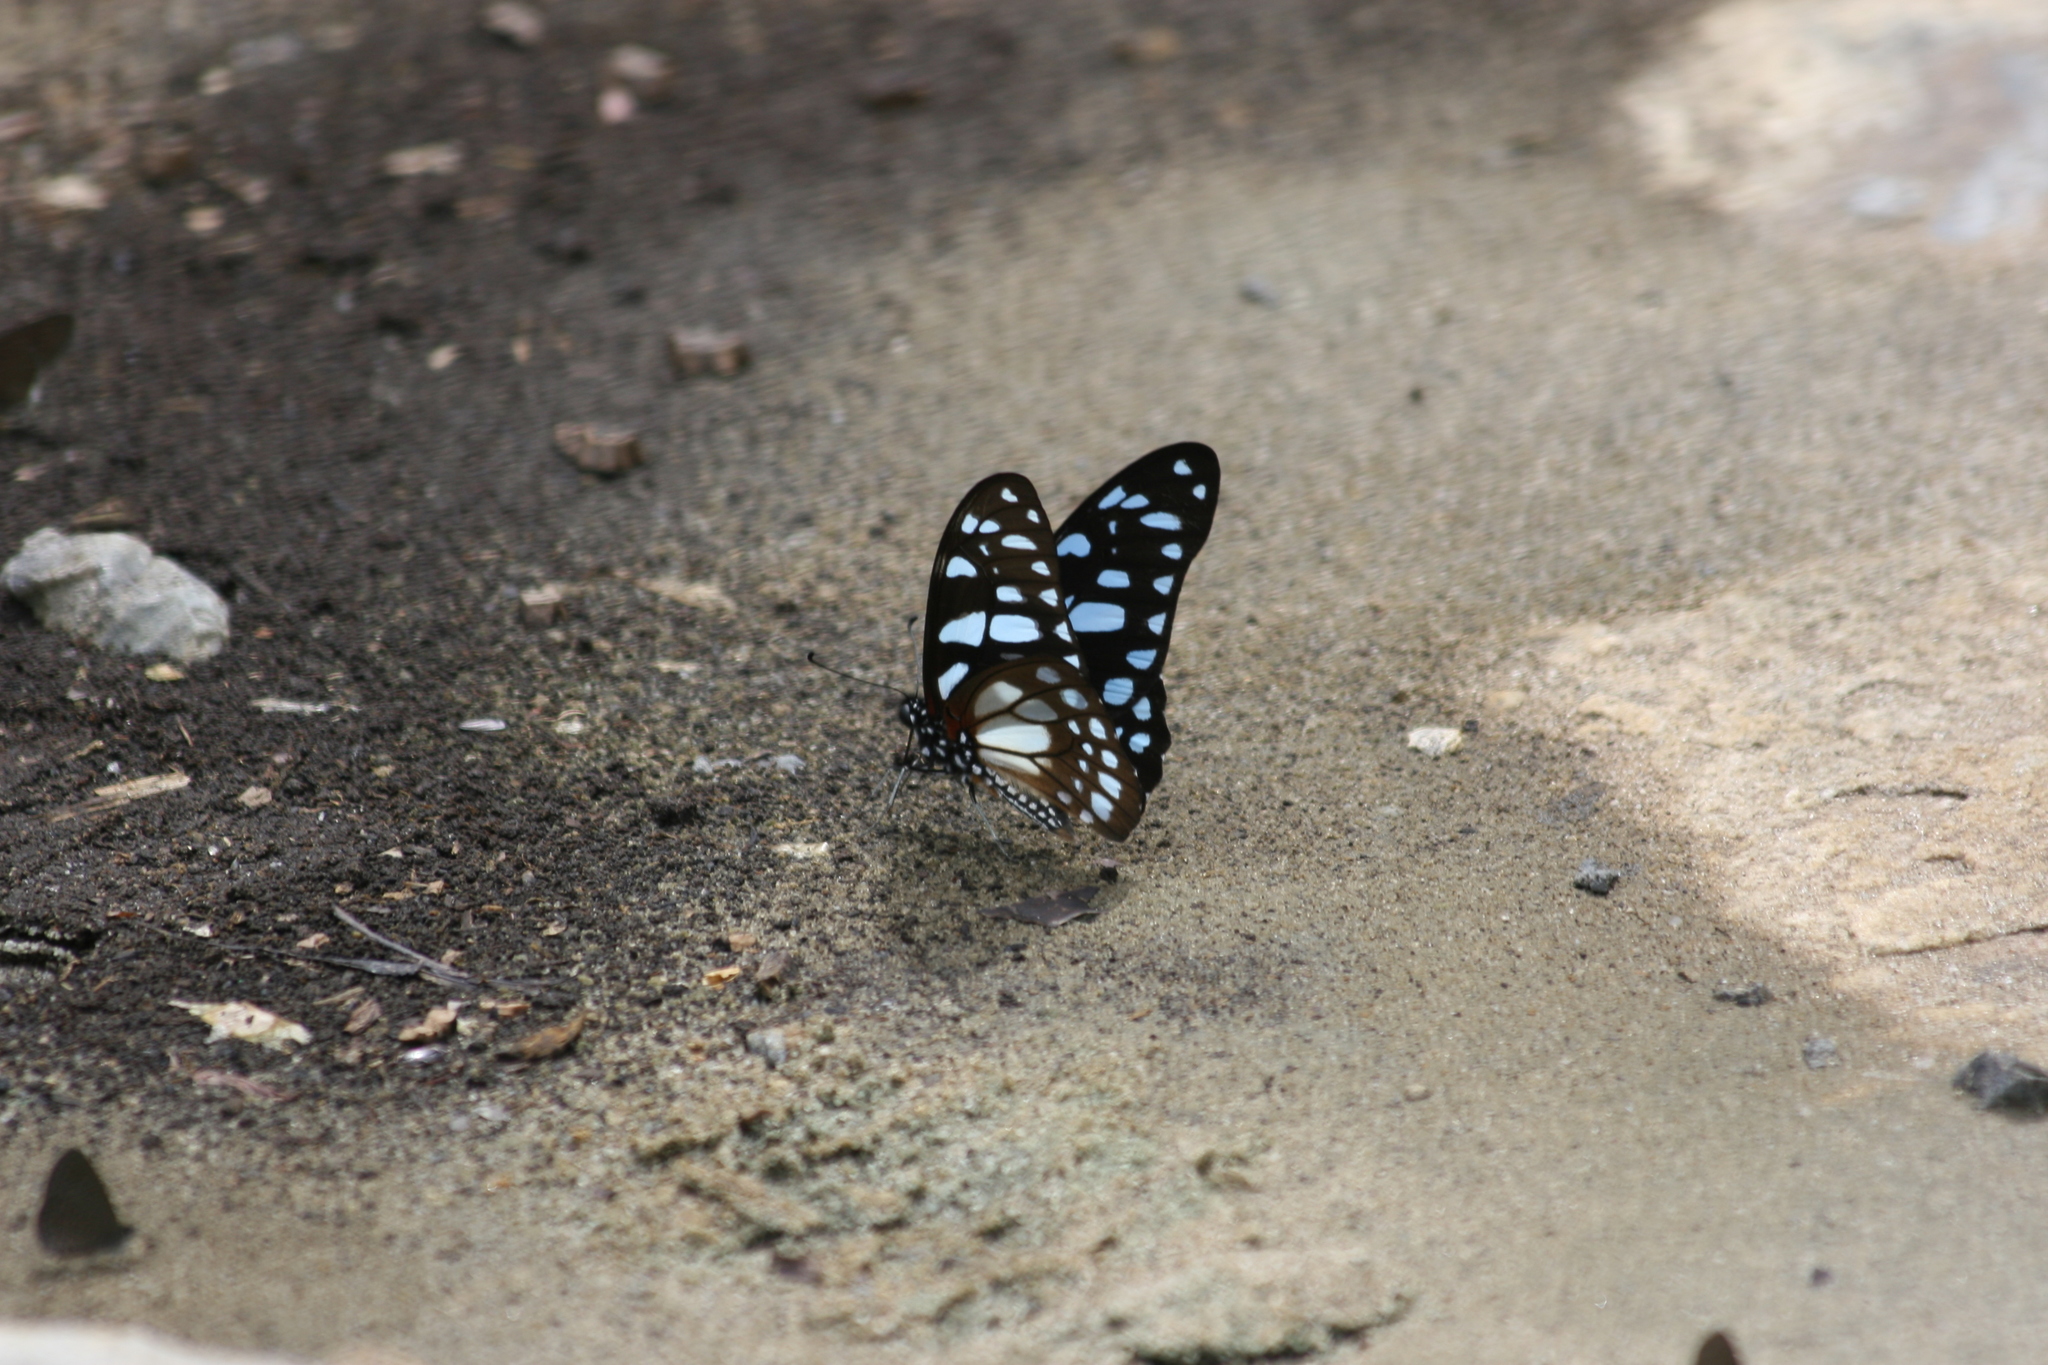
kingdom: Animalia
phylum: Arthropoda
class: Insecta
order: Lepidoptera
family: Papilionidae
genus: Graphium
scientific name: Graphium leonidas
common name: Common graphium
